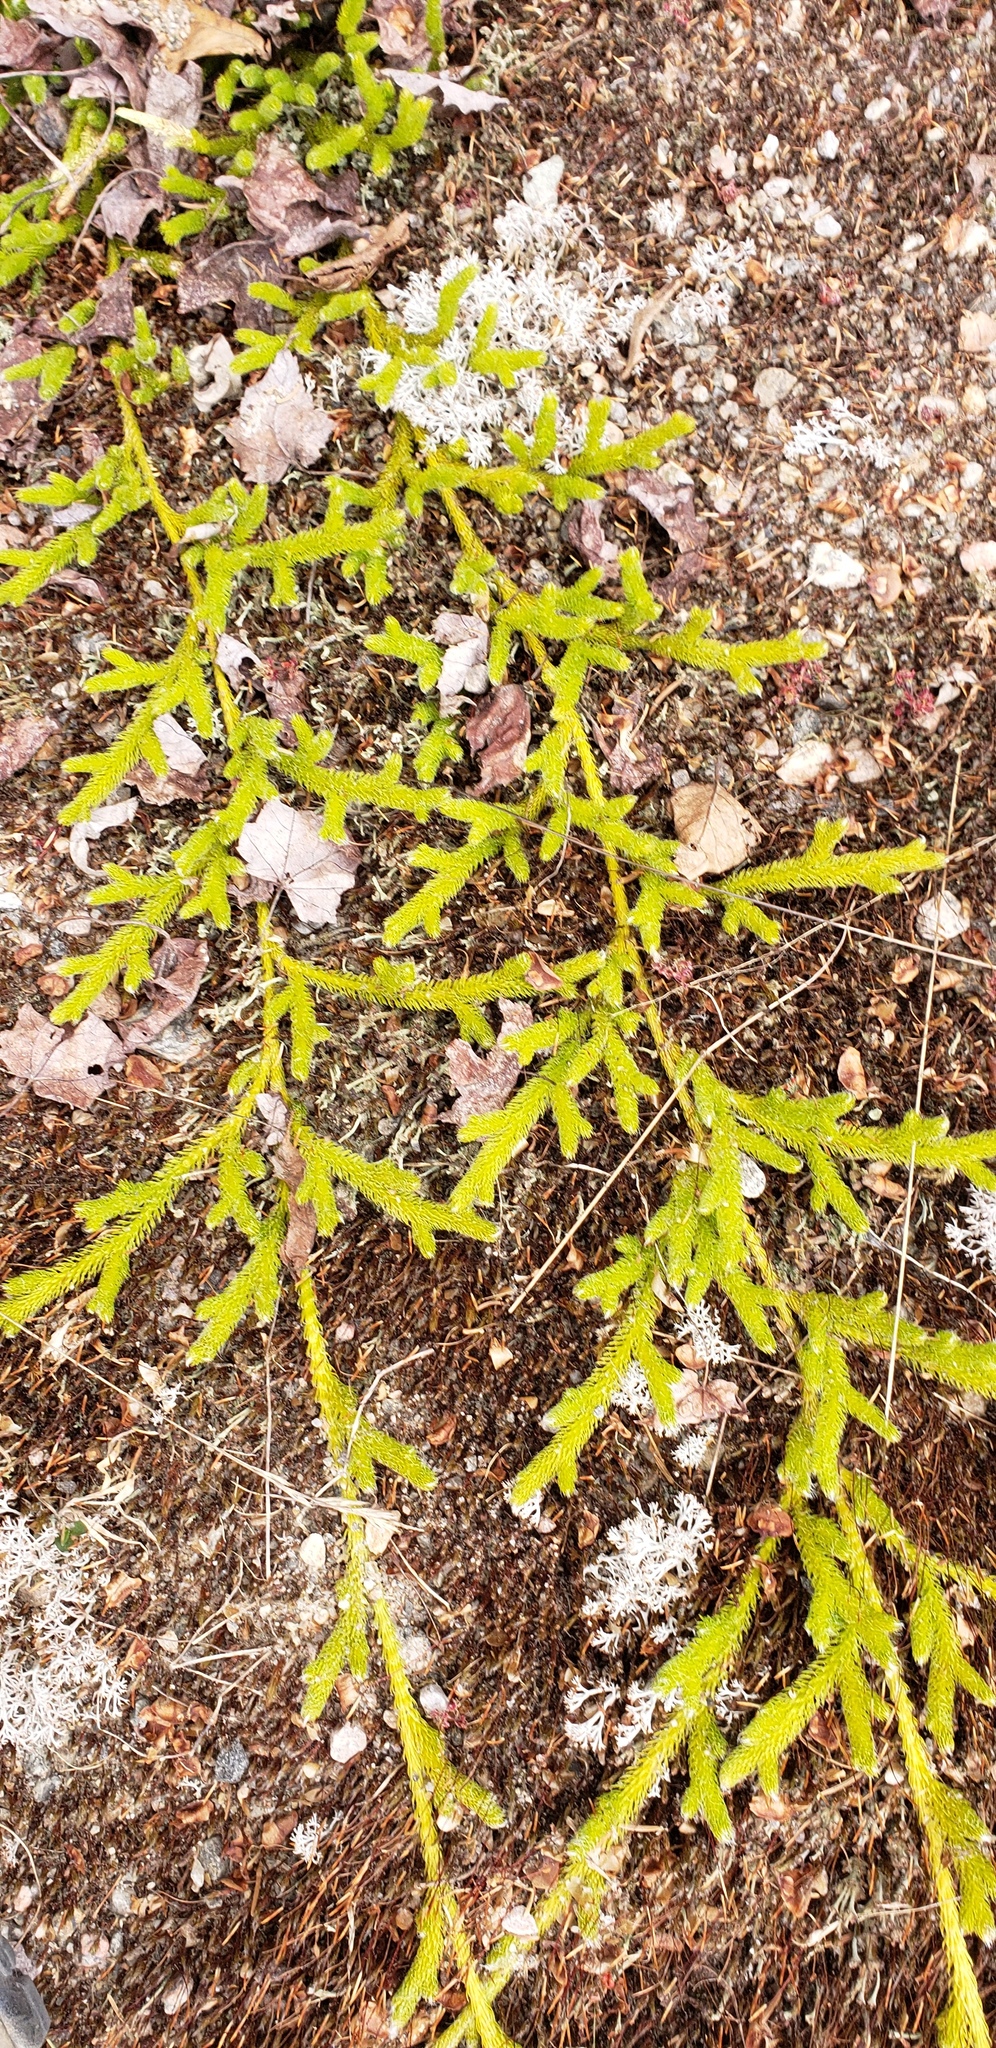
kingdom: Plantae
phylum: Tracheophyta
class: Lycopodiopsida
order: Lycopodiales
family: Lycopodiaceae
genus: Lycopodium
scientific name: Lycopodium clavatum
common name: Stag's-horn clubmoss
